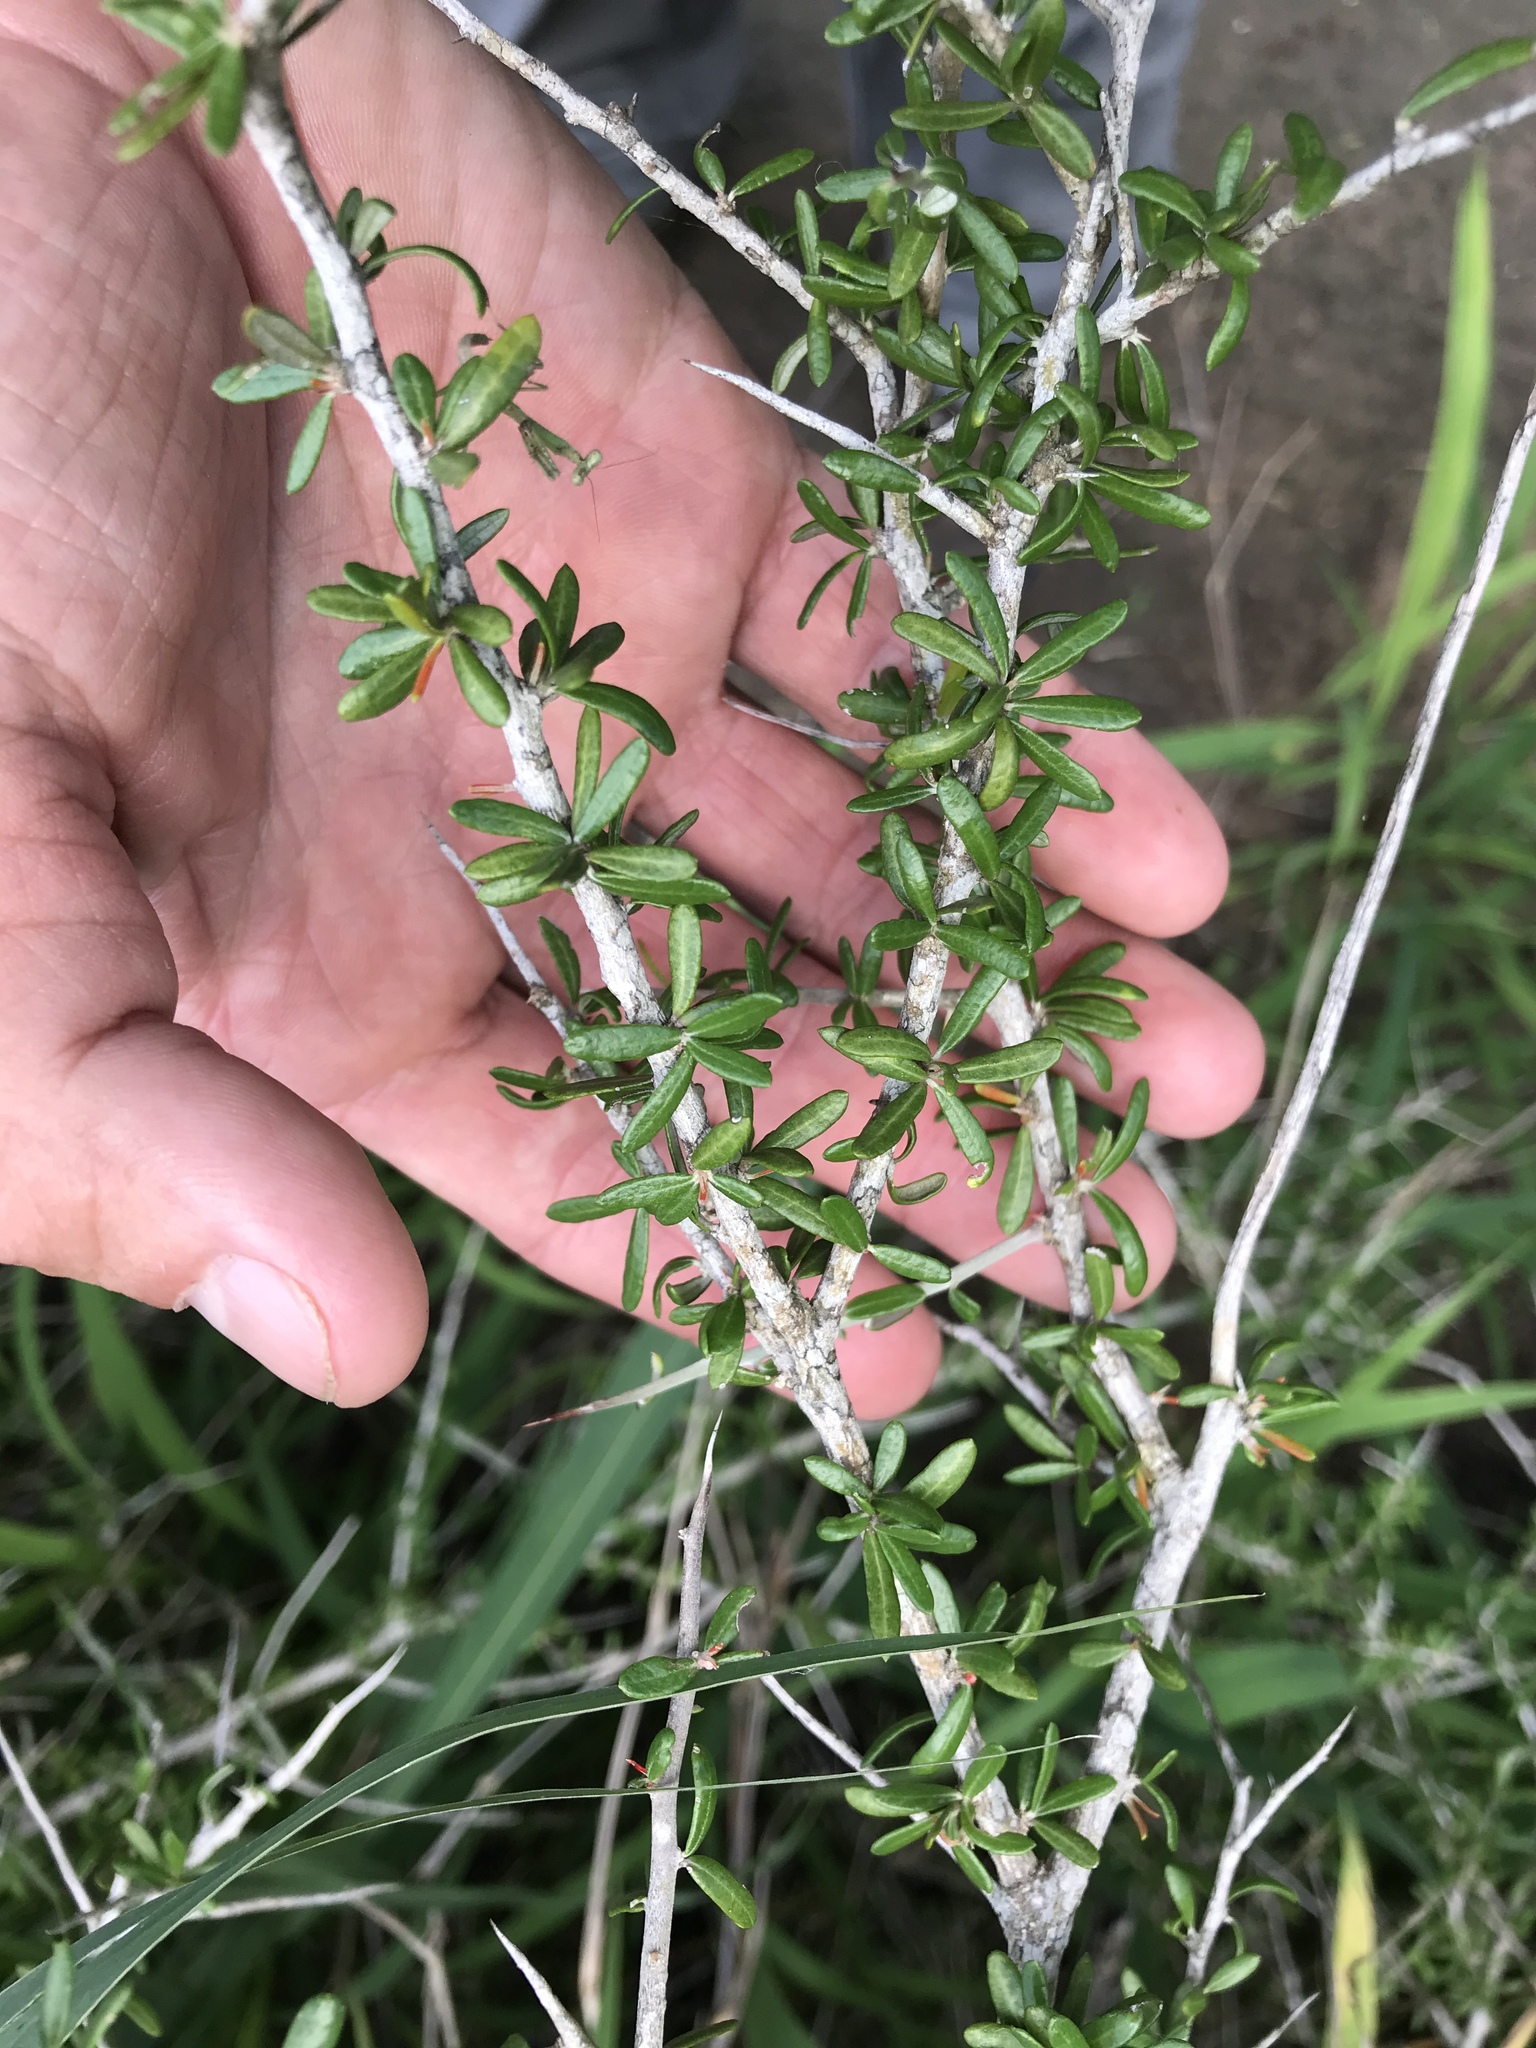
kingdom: Plantae
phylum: Tracheophyta
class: Magnoliopsida
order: Sapindales
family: Simaroubaceae
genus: Castela
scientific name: Castela erecta
